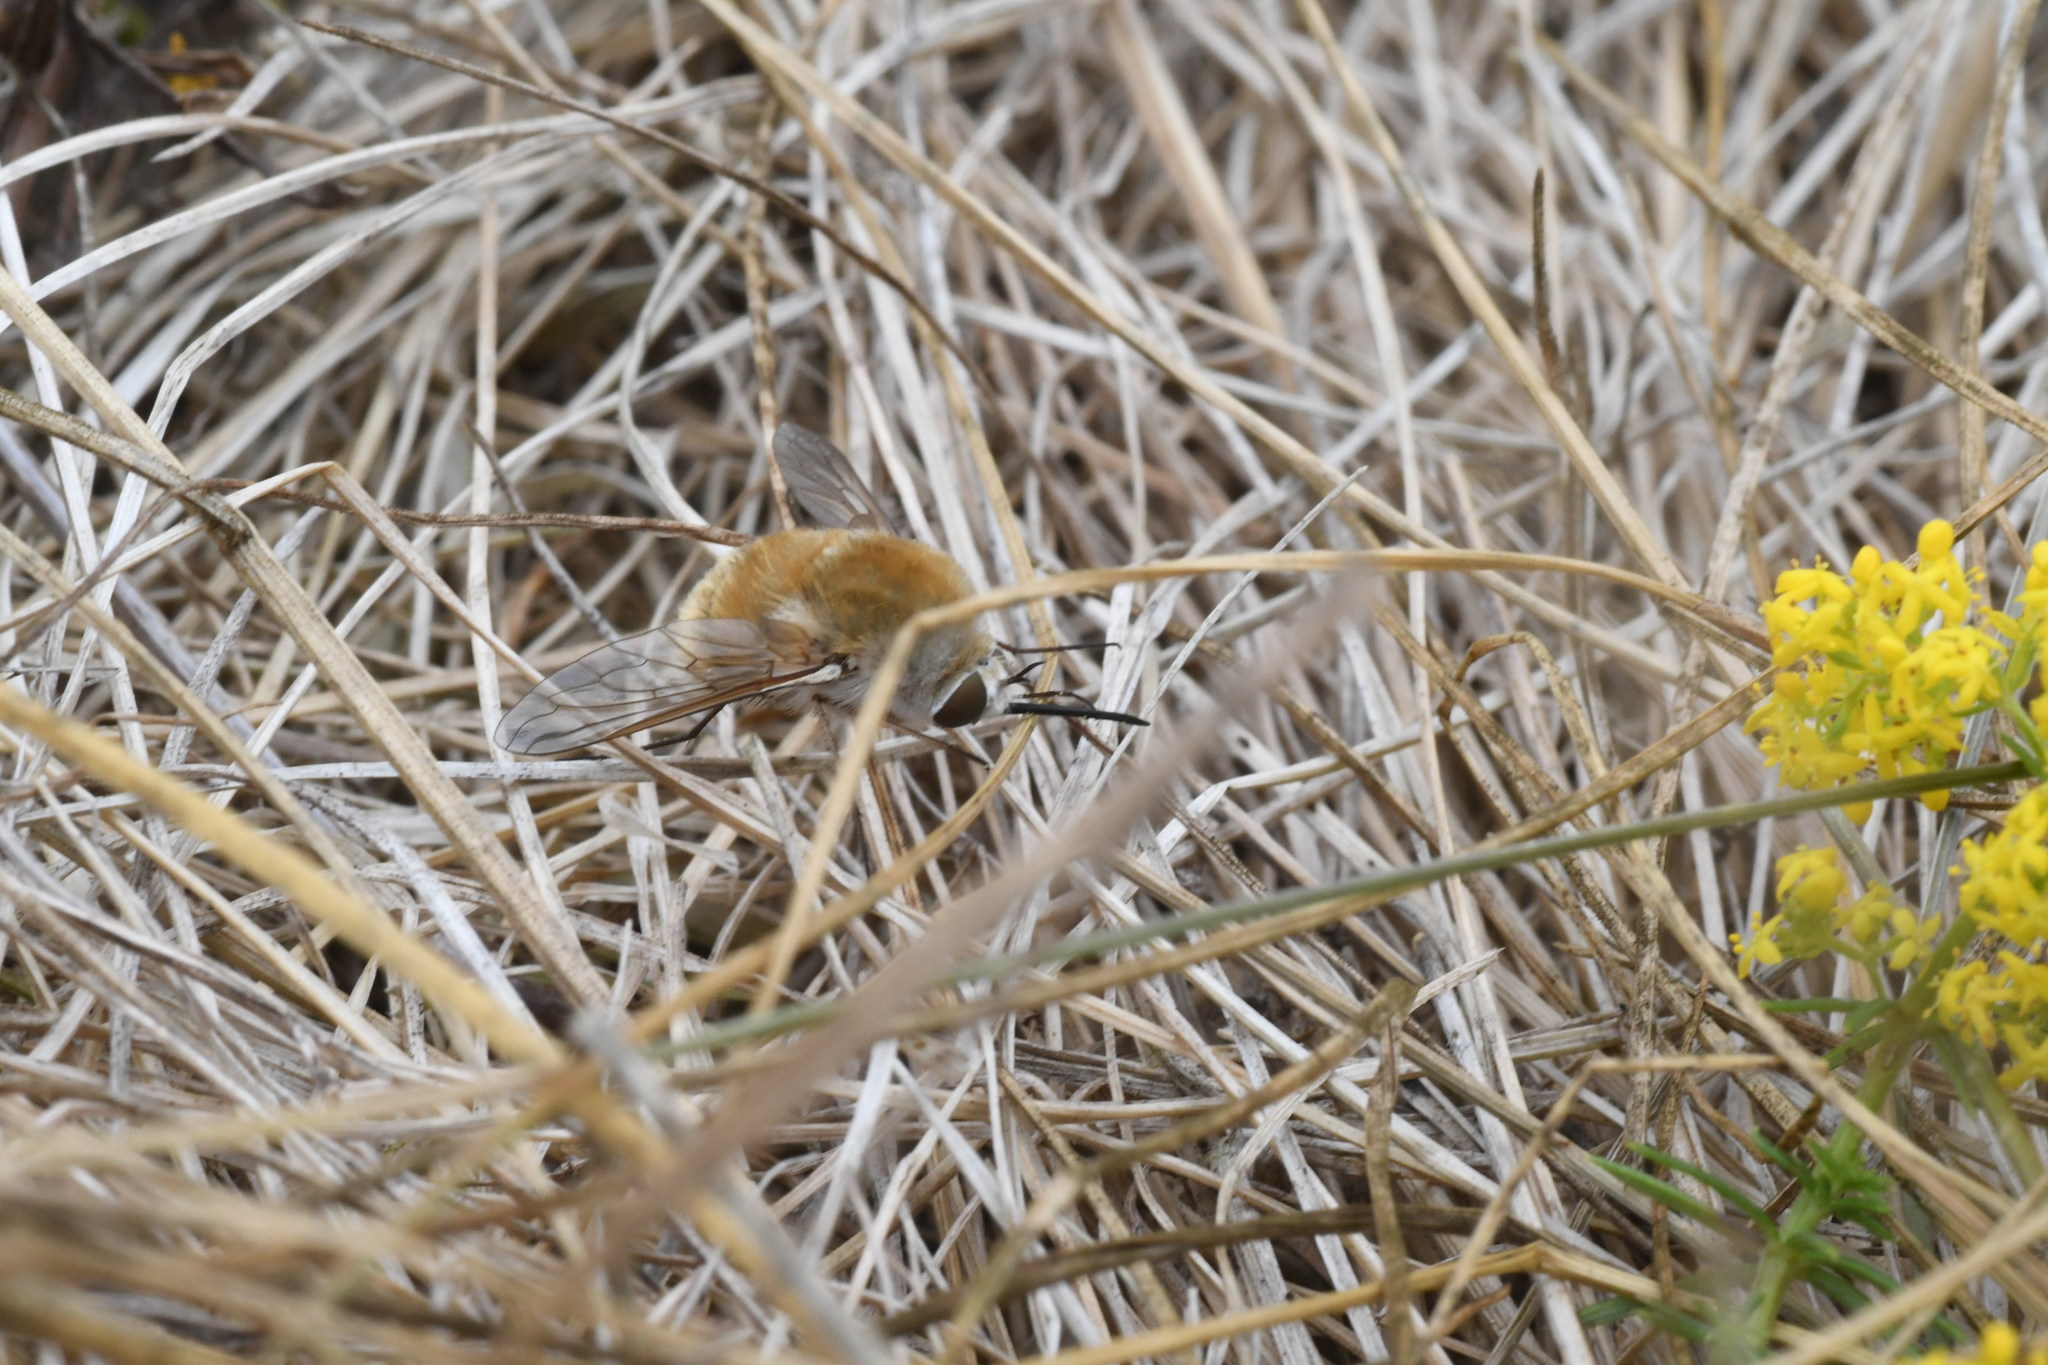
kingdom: Animalia
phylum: Arthropoda
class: Insecta
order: Diptera
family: Bombyliidae
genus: Bombylius
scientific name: Bombylius minor
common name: Heath bee-fly
